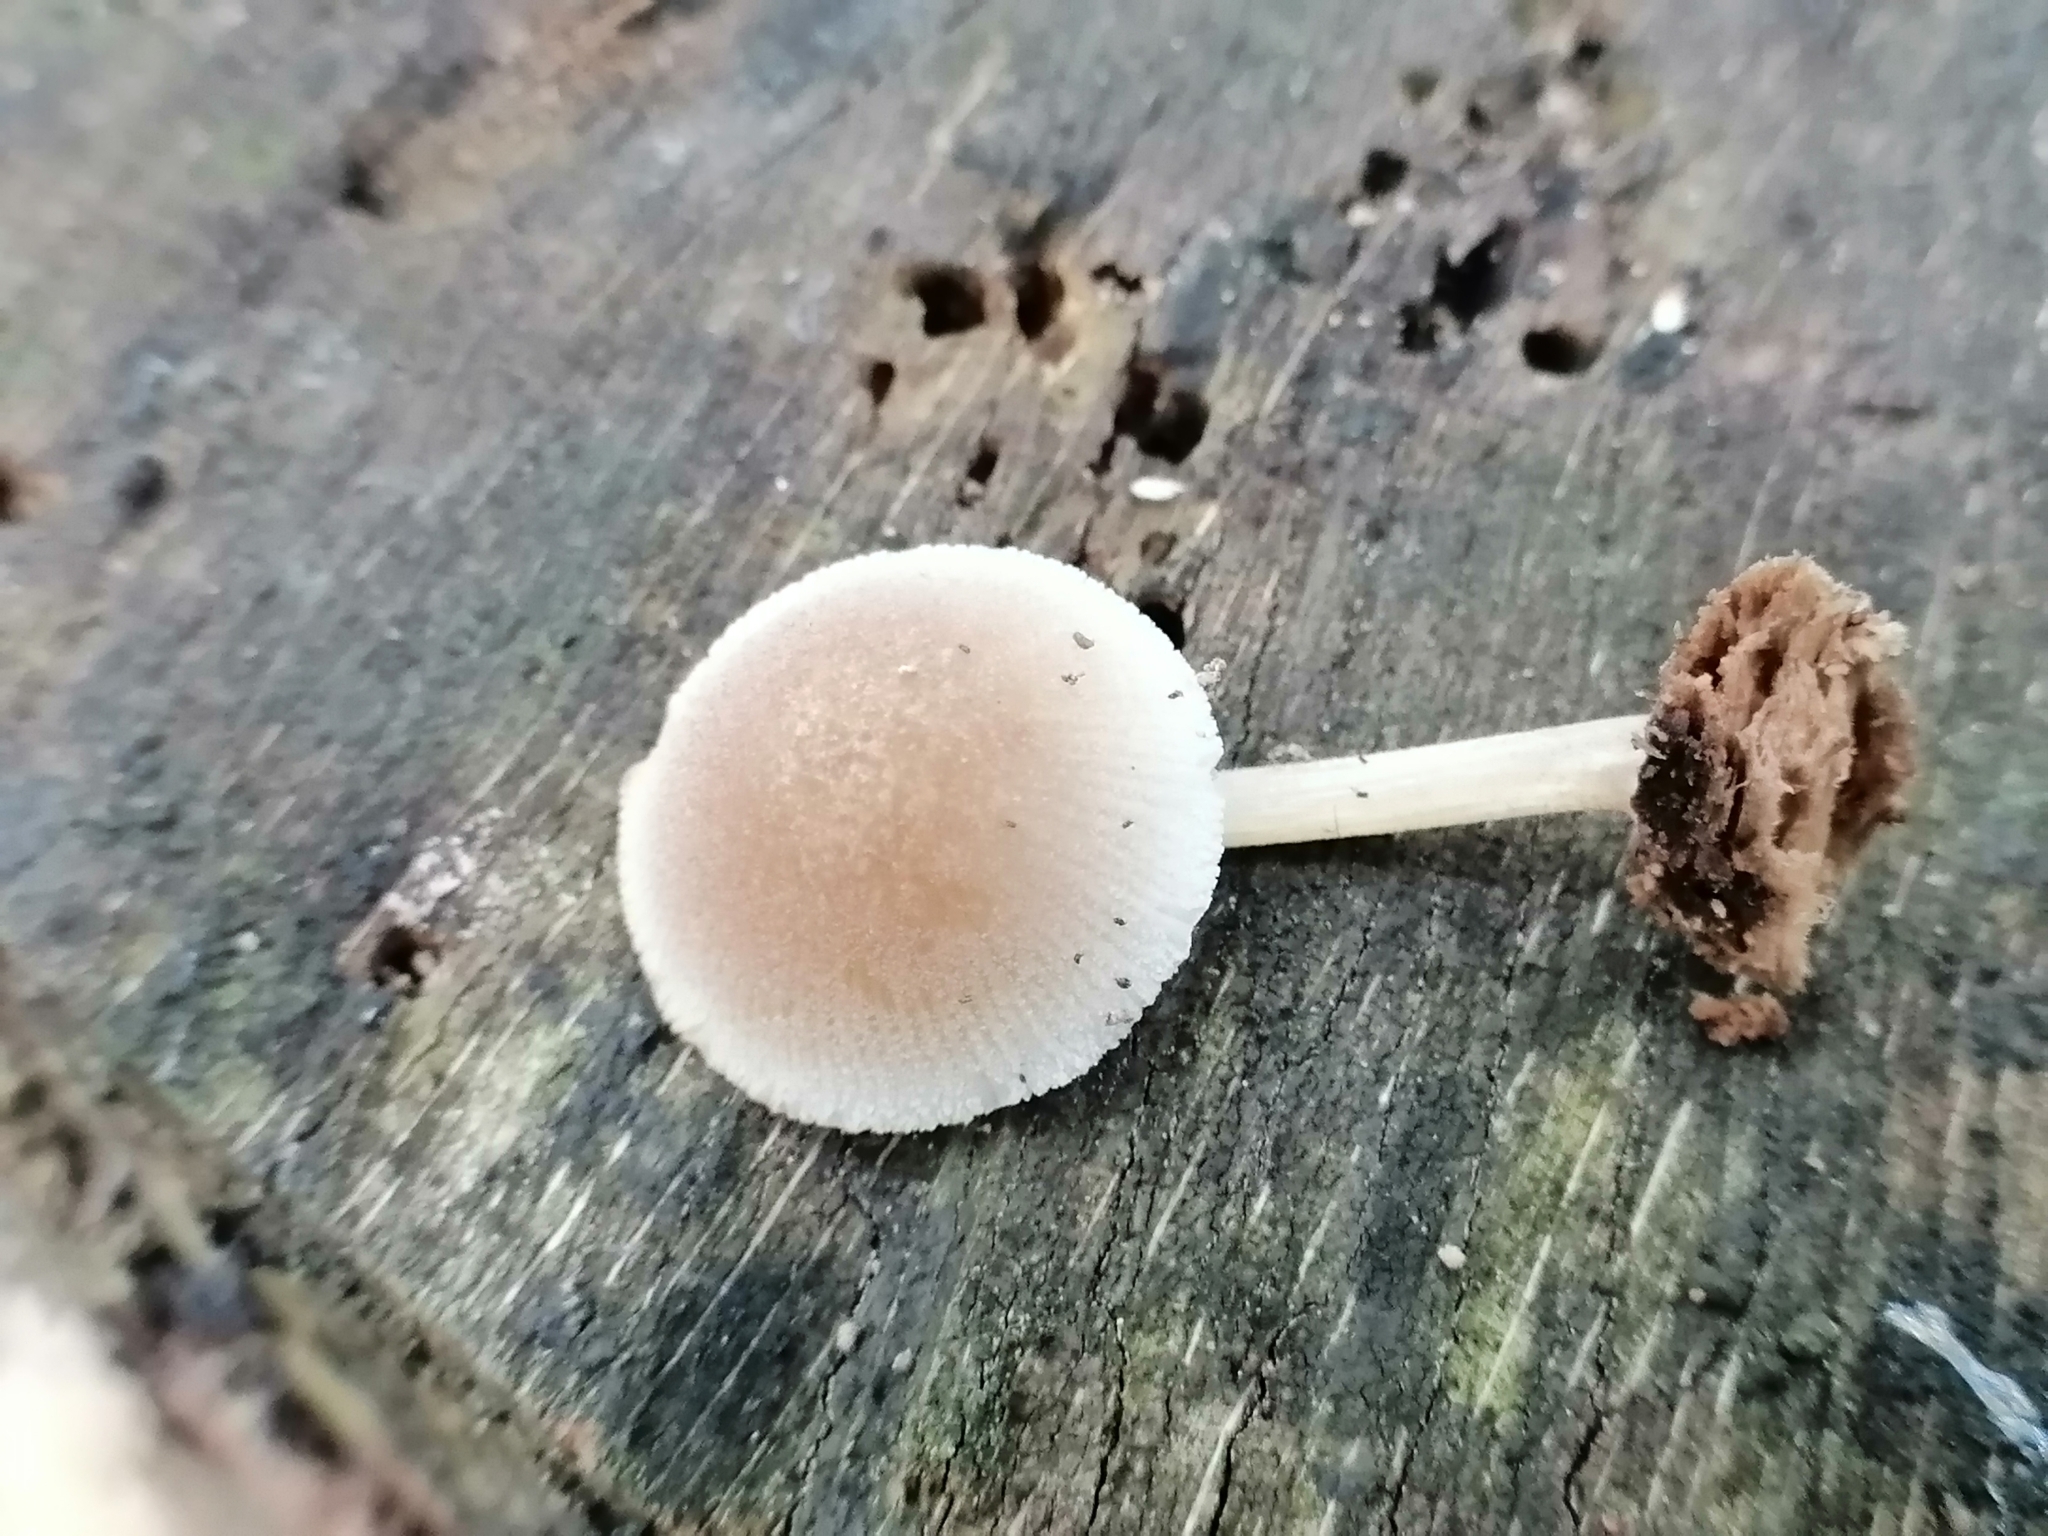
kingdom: Fungi
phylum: Basidiomycota
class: Agaricomycetes
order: Agaricales
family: Pluteaceae
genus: Pluteus
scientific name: Pluteus semibulbosus
